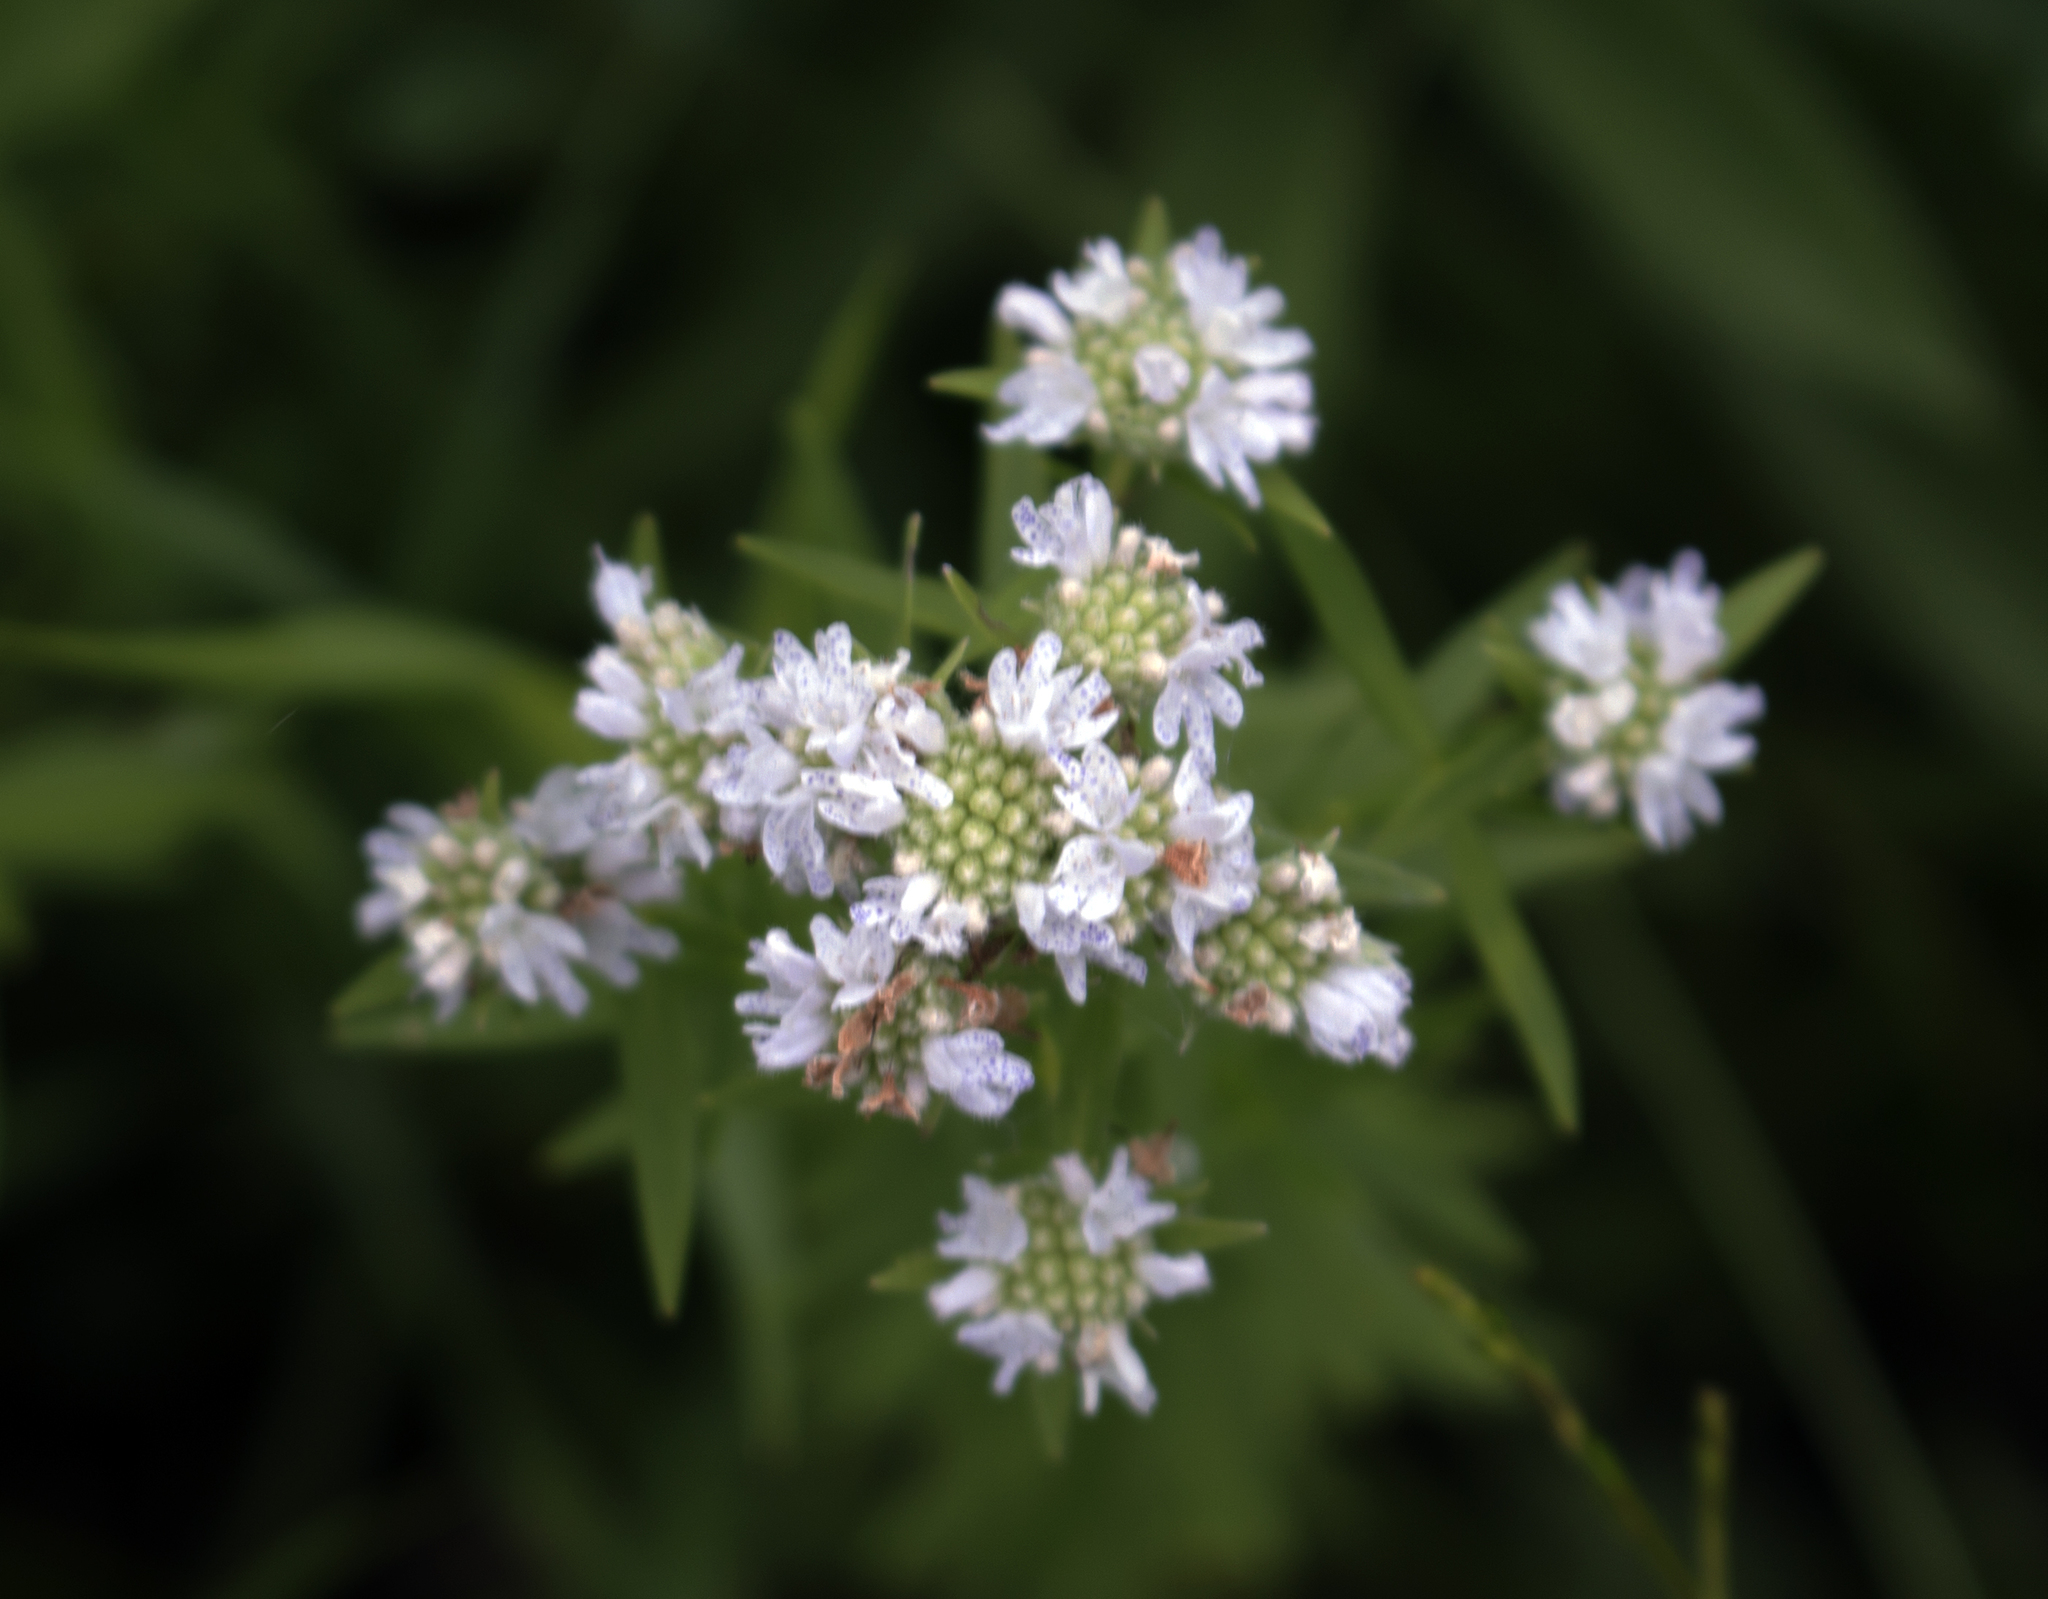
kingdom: Plantae
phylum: Tracheophyta
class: Magnoliopsida
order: Lamiales
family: Lamiaceae
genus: Pycnanthemum
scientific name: Pycnanthemum virginianum
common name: Virginia mountain-mint
